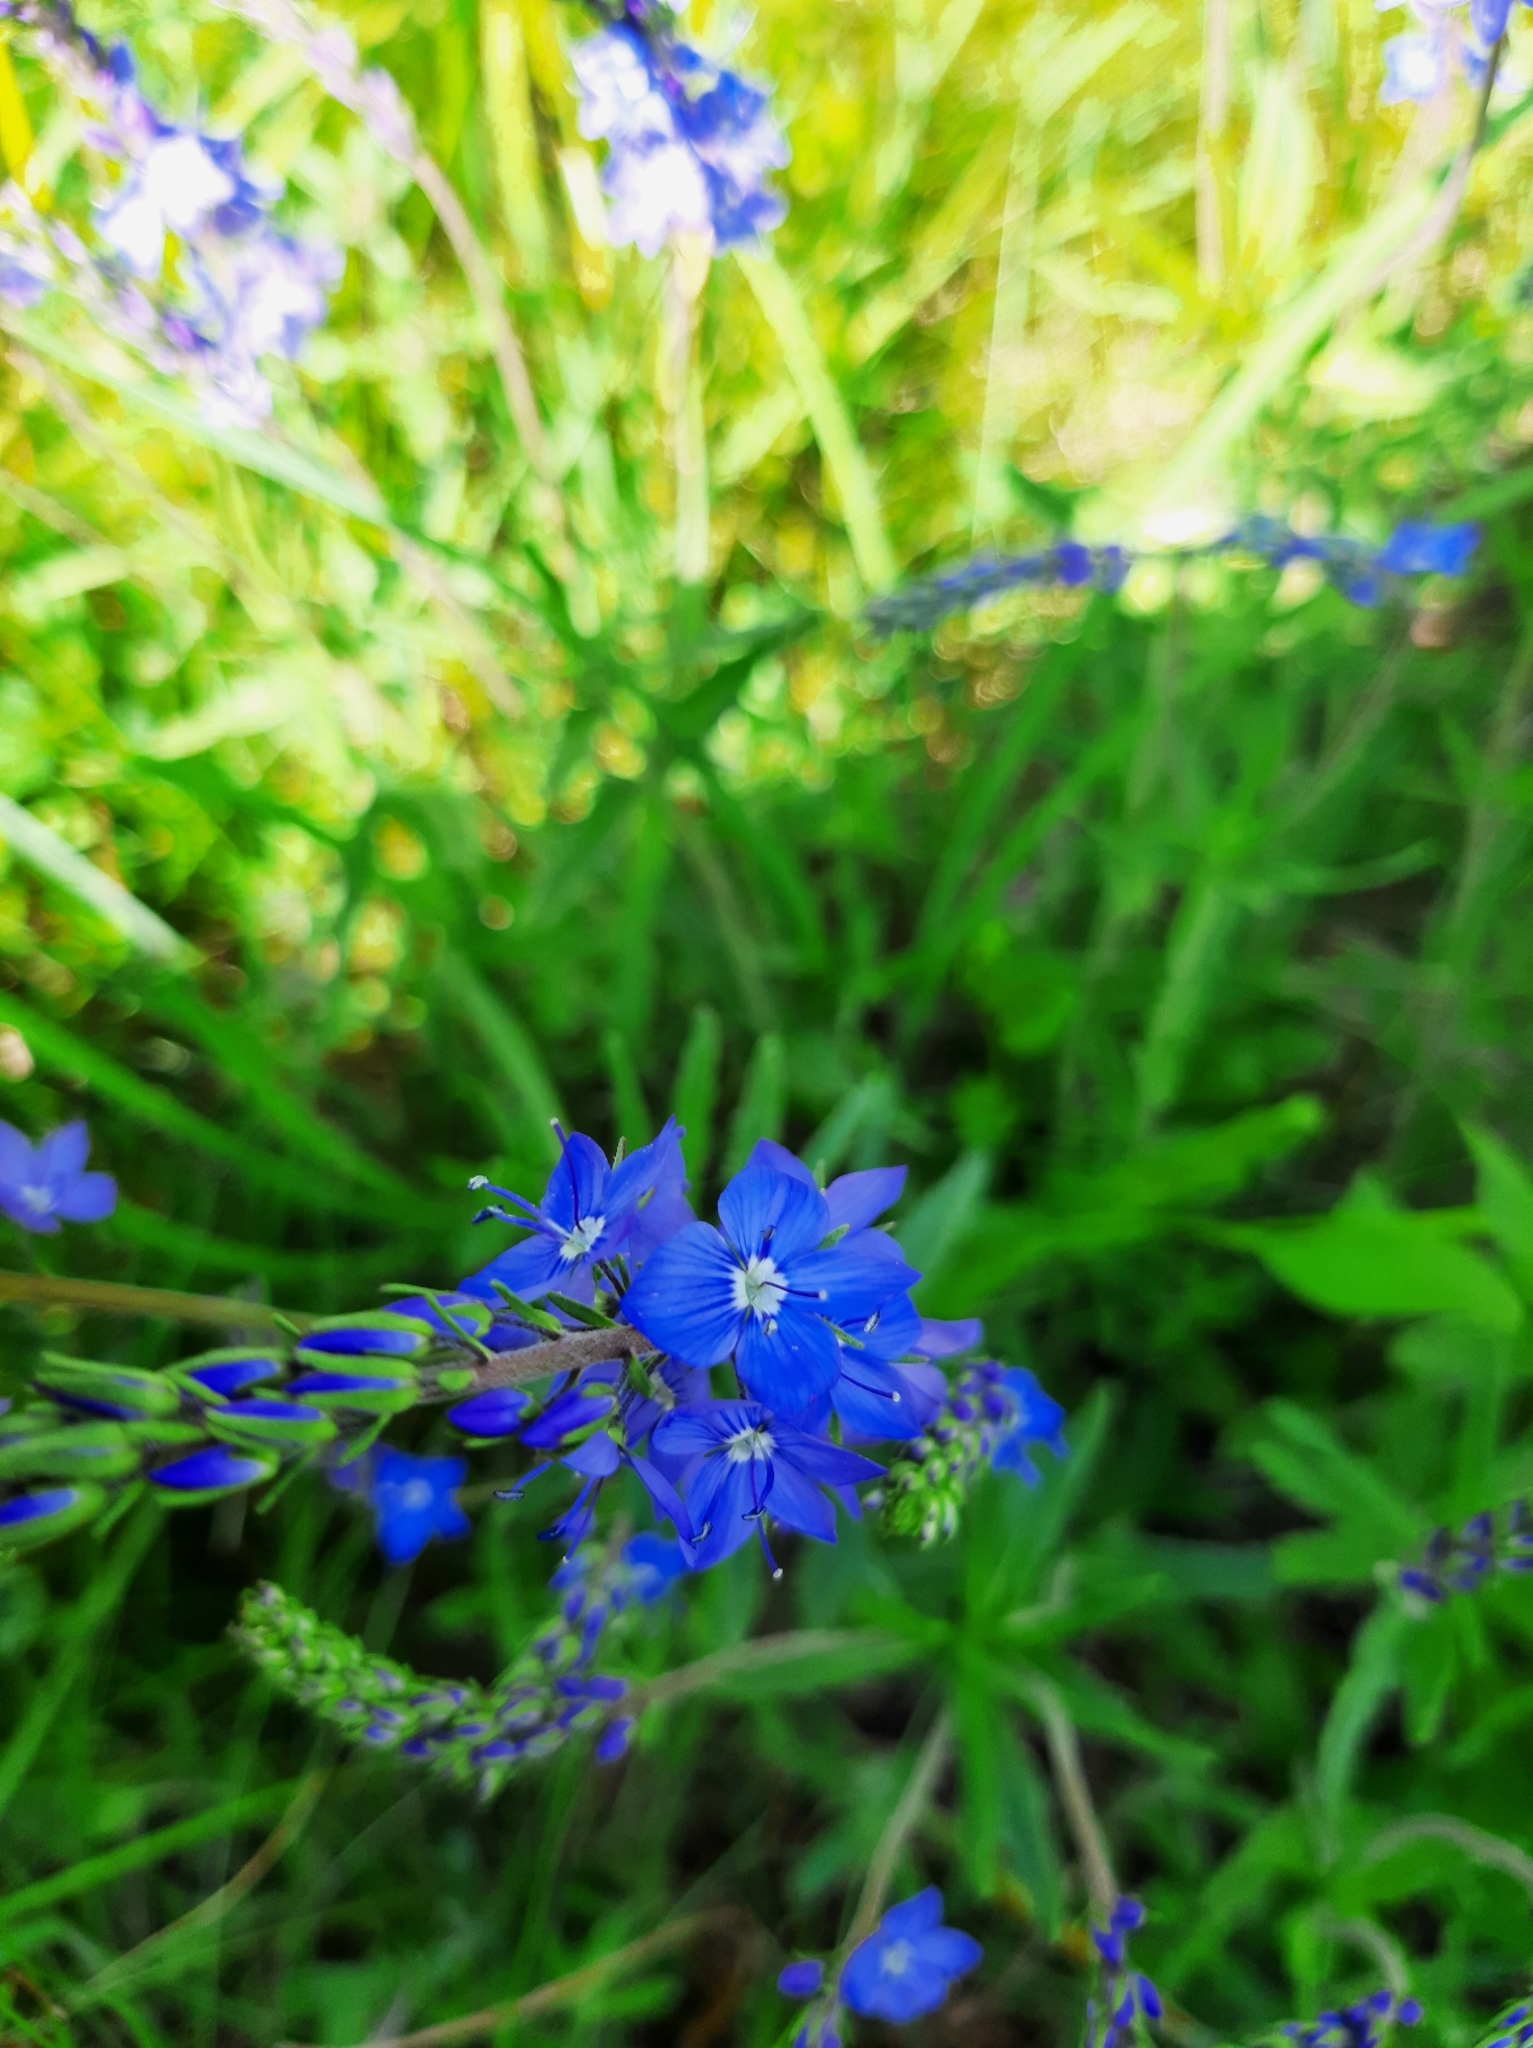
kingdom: Plantae
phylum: Tracheophyta
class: Magnoliopsida
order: Lamiales
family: Plantaginaceae
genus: Veronica
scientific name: Veronica teucrium
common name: Large speedwell
